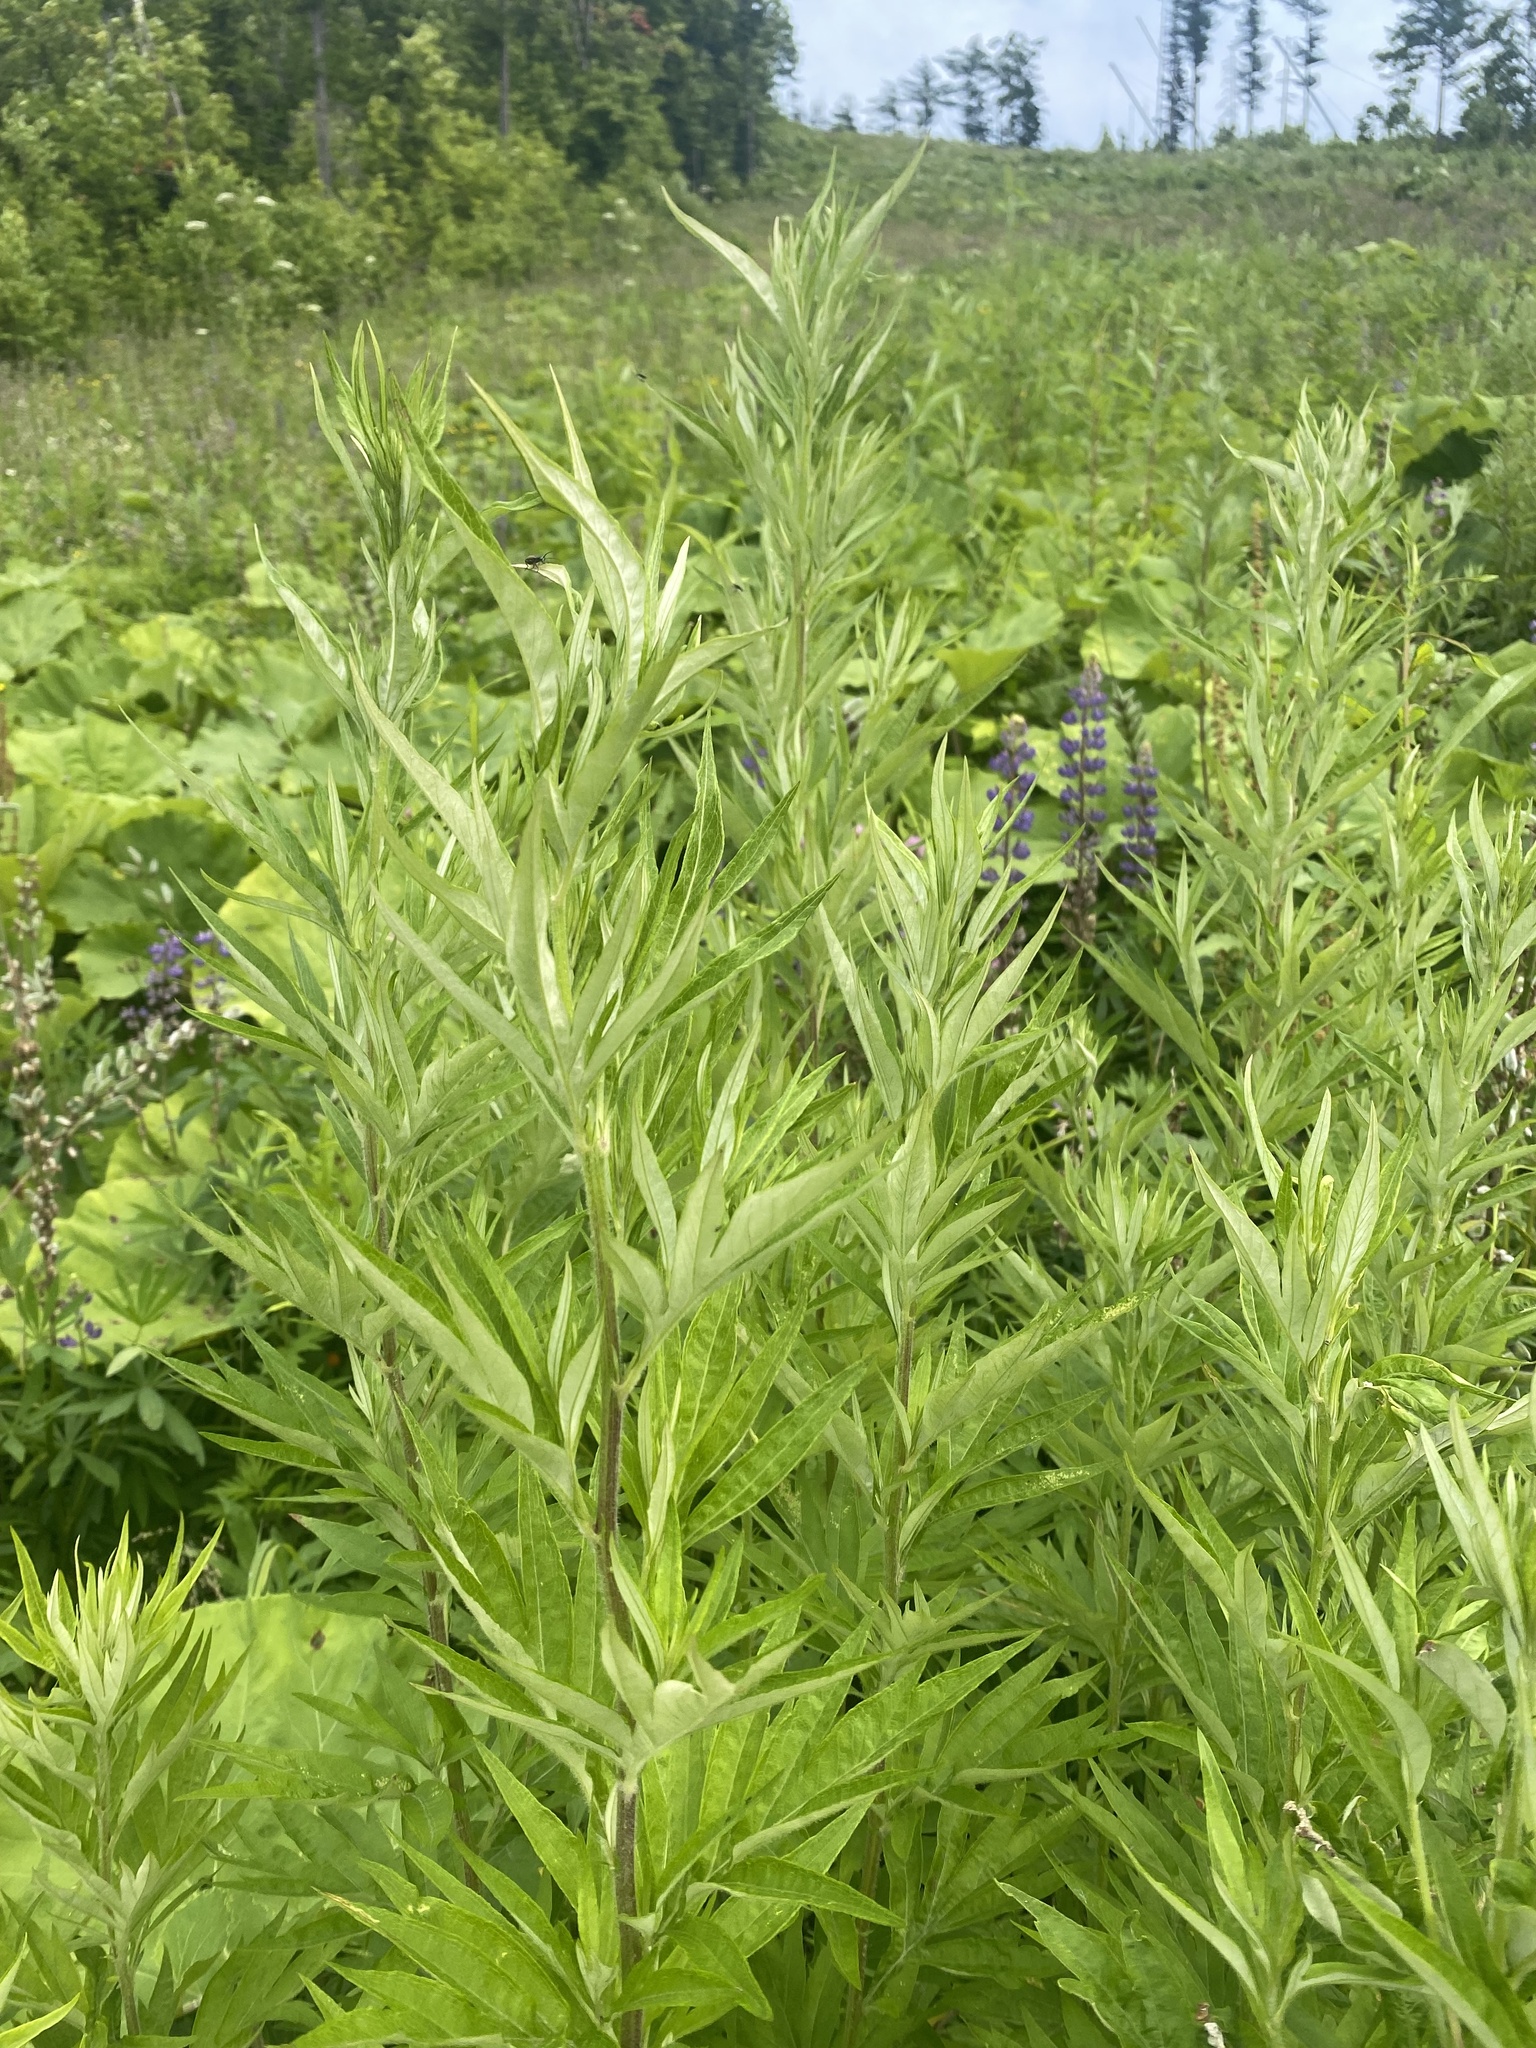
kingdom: Plantae
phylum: Tracheophyta
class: Magnoliopsida
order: Asterales
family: Asteraceae
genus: Jacobaea
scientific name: Jacobaea cannabifolia
